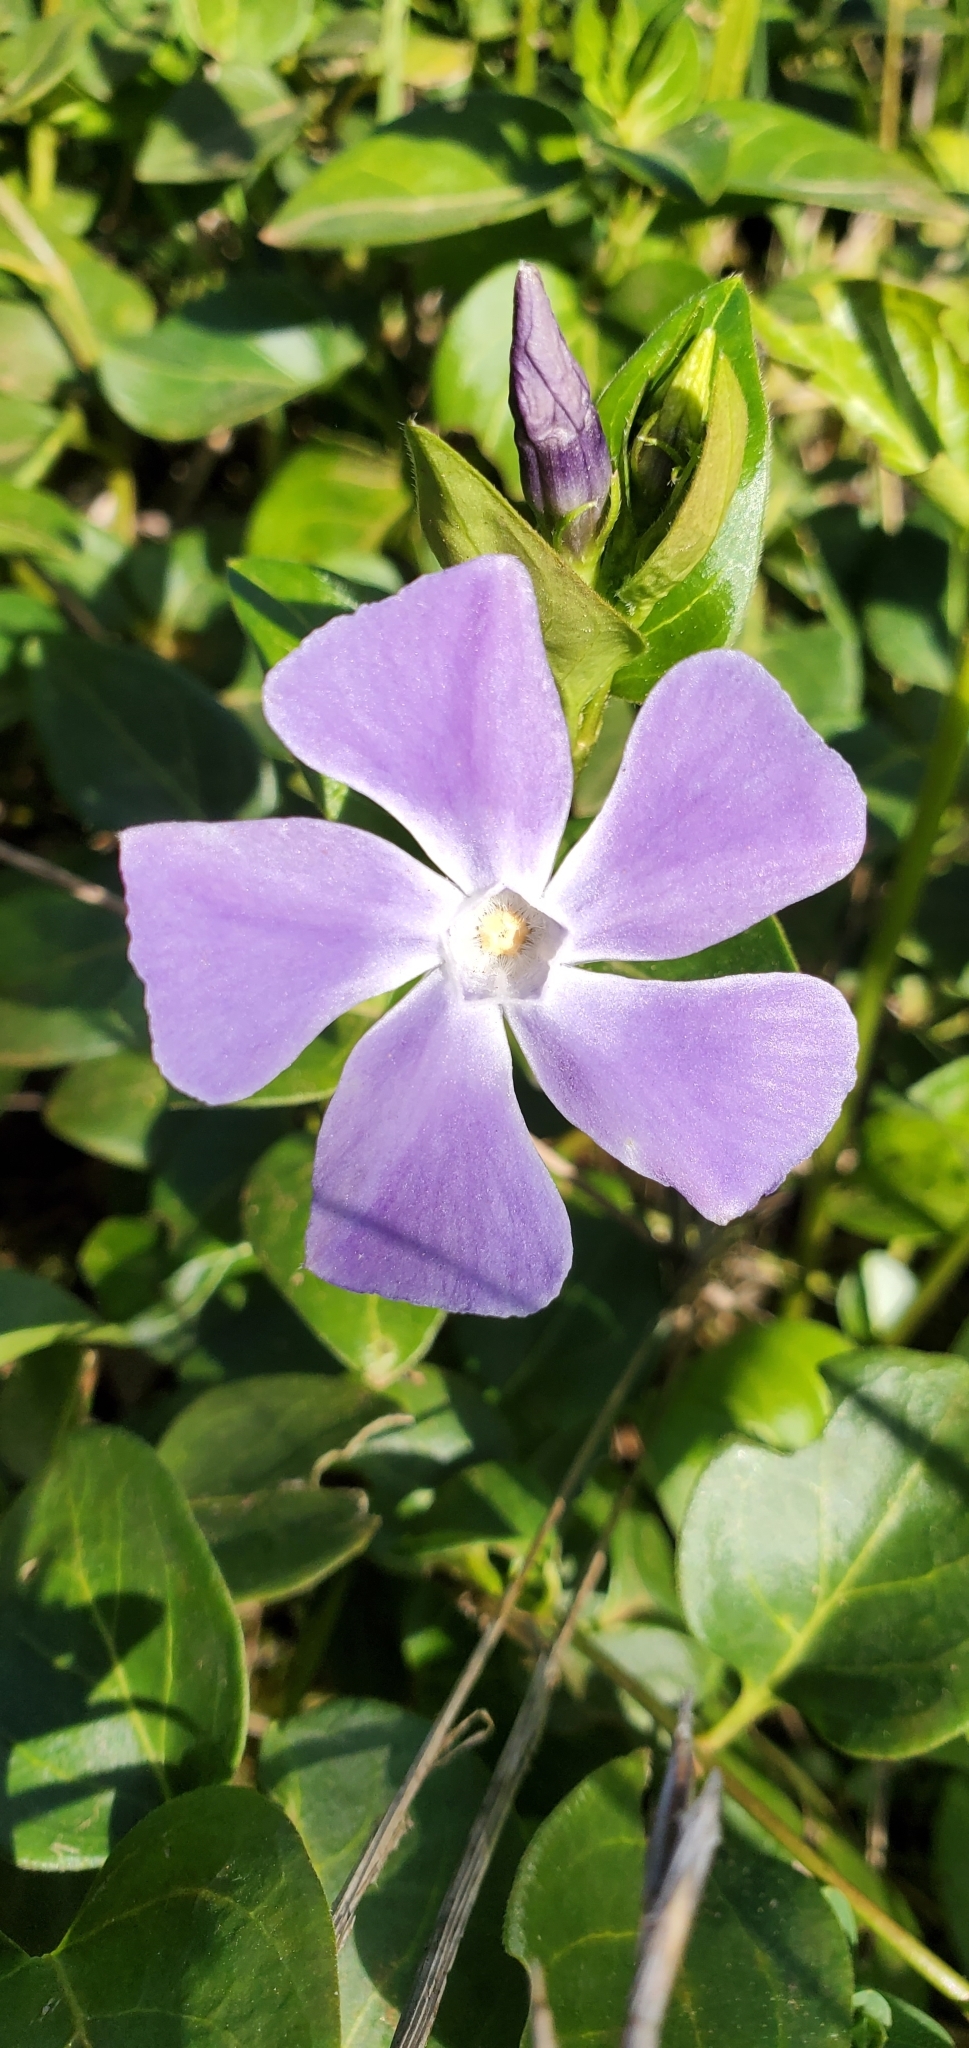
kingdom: Plantae
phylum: Tracheophyta
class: Magnoliopsida
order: Gentianales
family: Apocynaceae
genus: Vinca
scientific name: Vinca major
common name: Greater periwinkle
